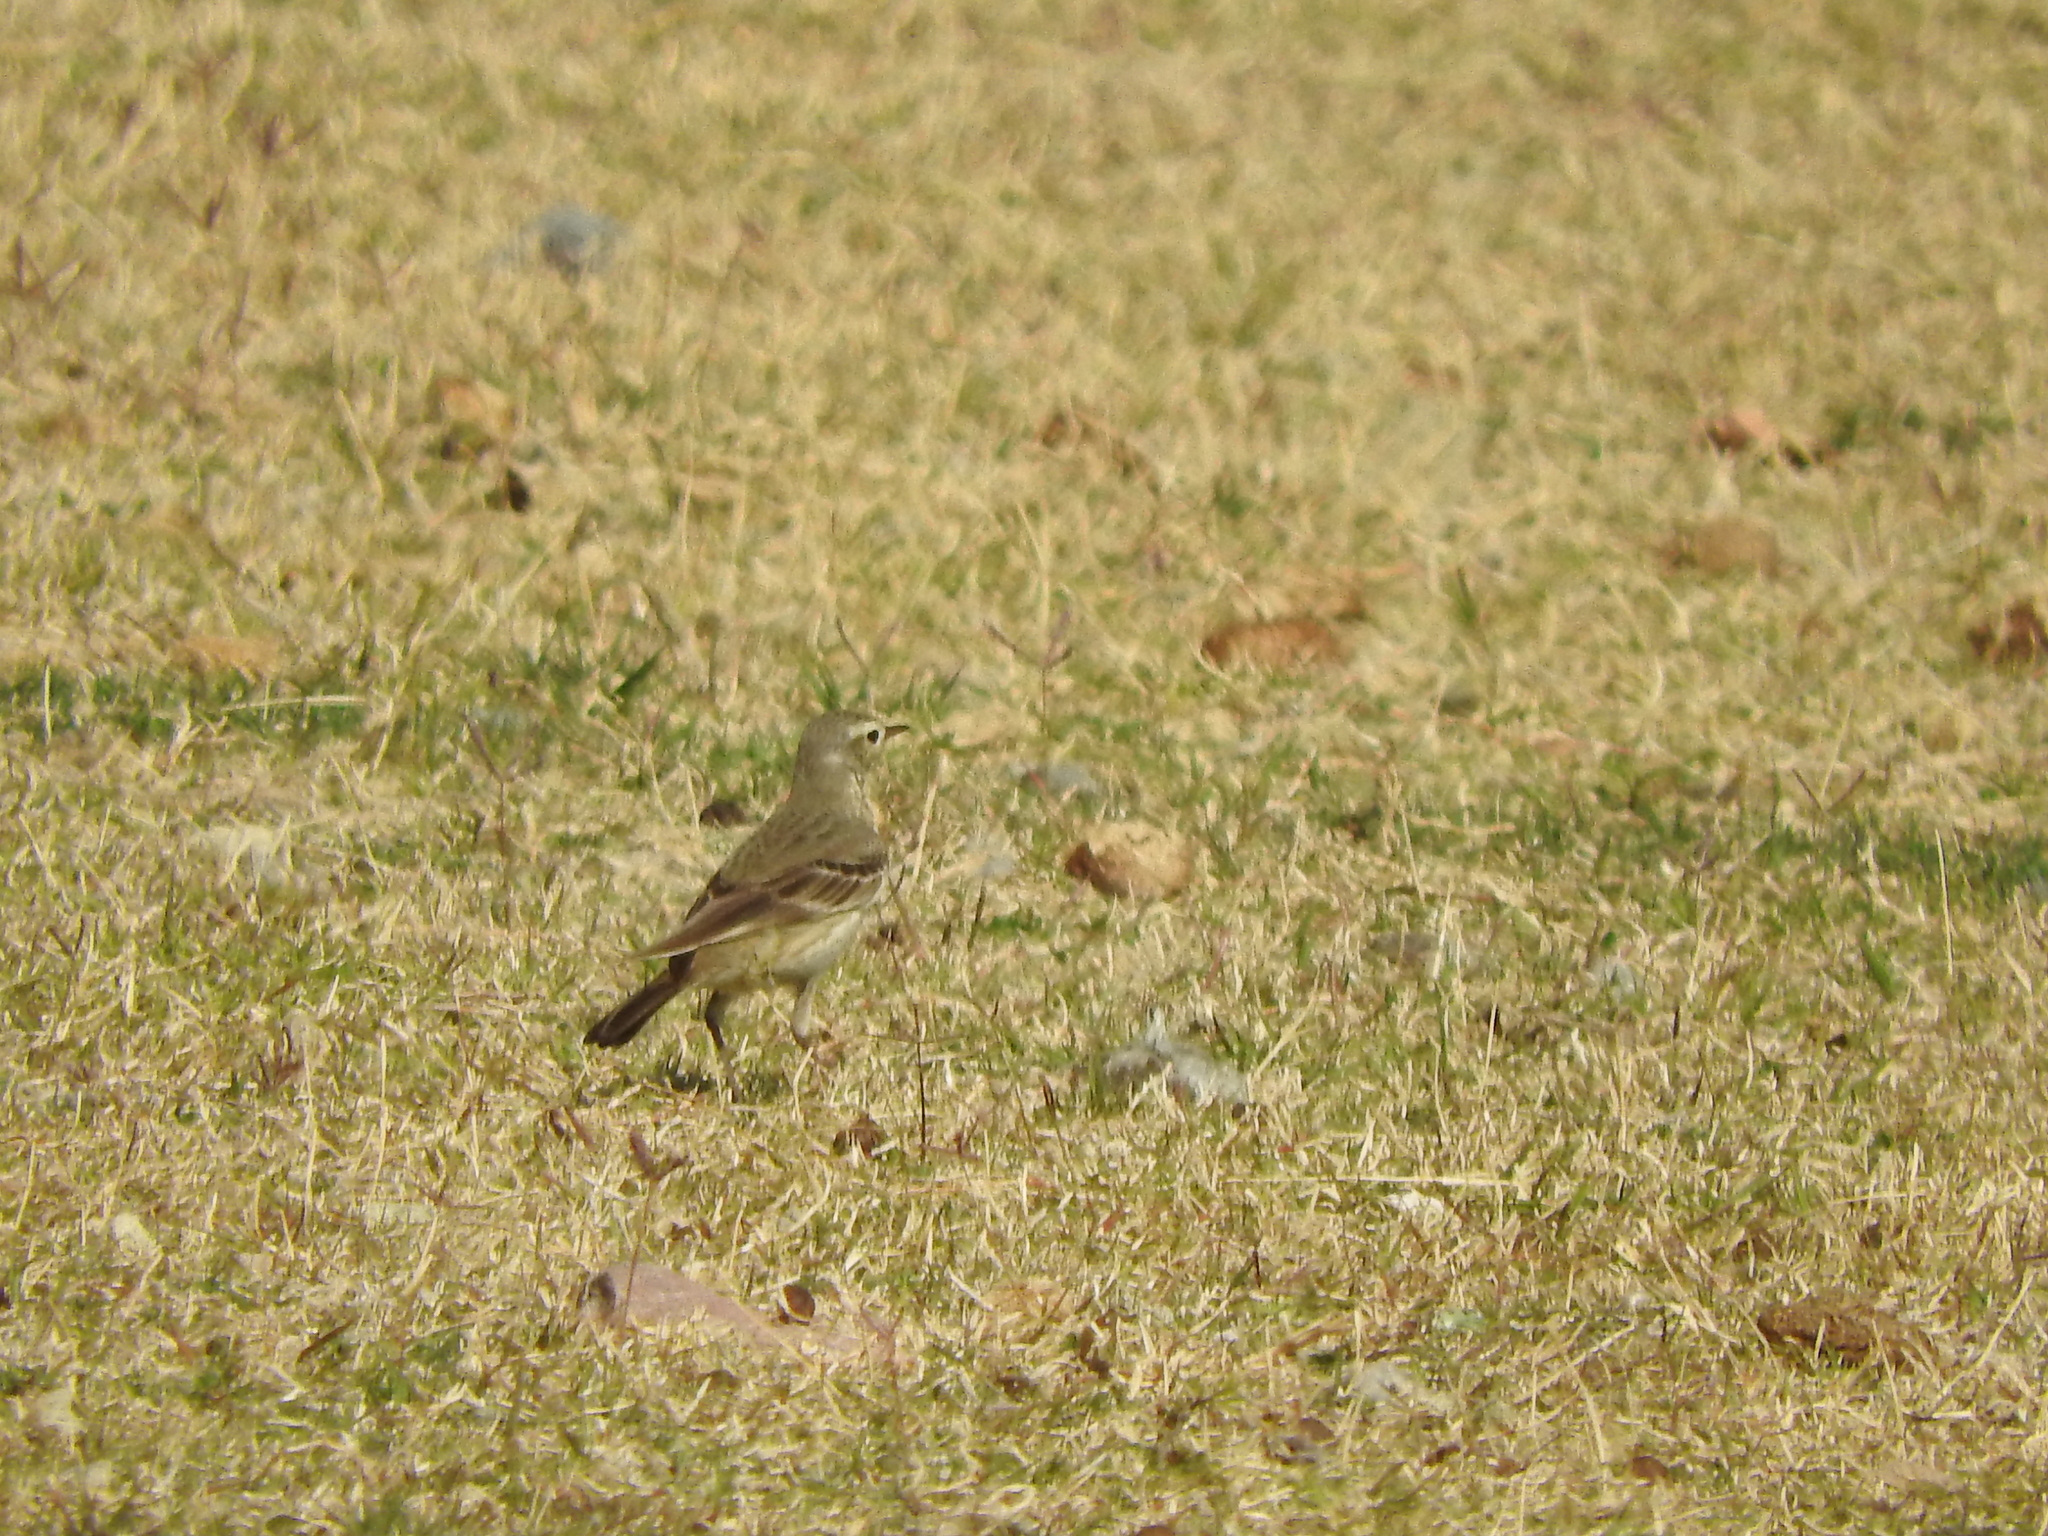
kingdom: Animalia
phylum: Chordata
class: Aves
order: Passeriformes
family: Motacillidae
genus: Anthus
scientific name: Anthus rubescens
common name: Buff-bellied pipit
